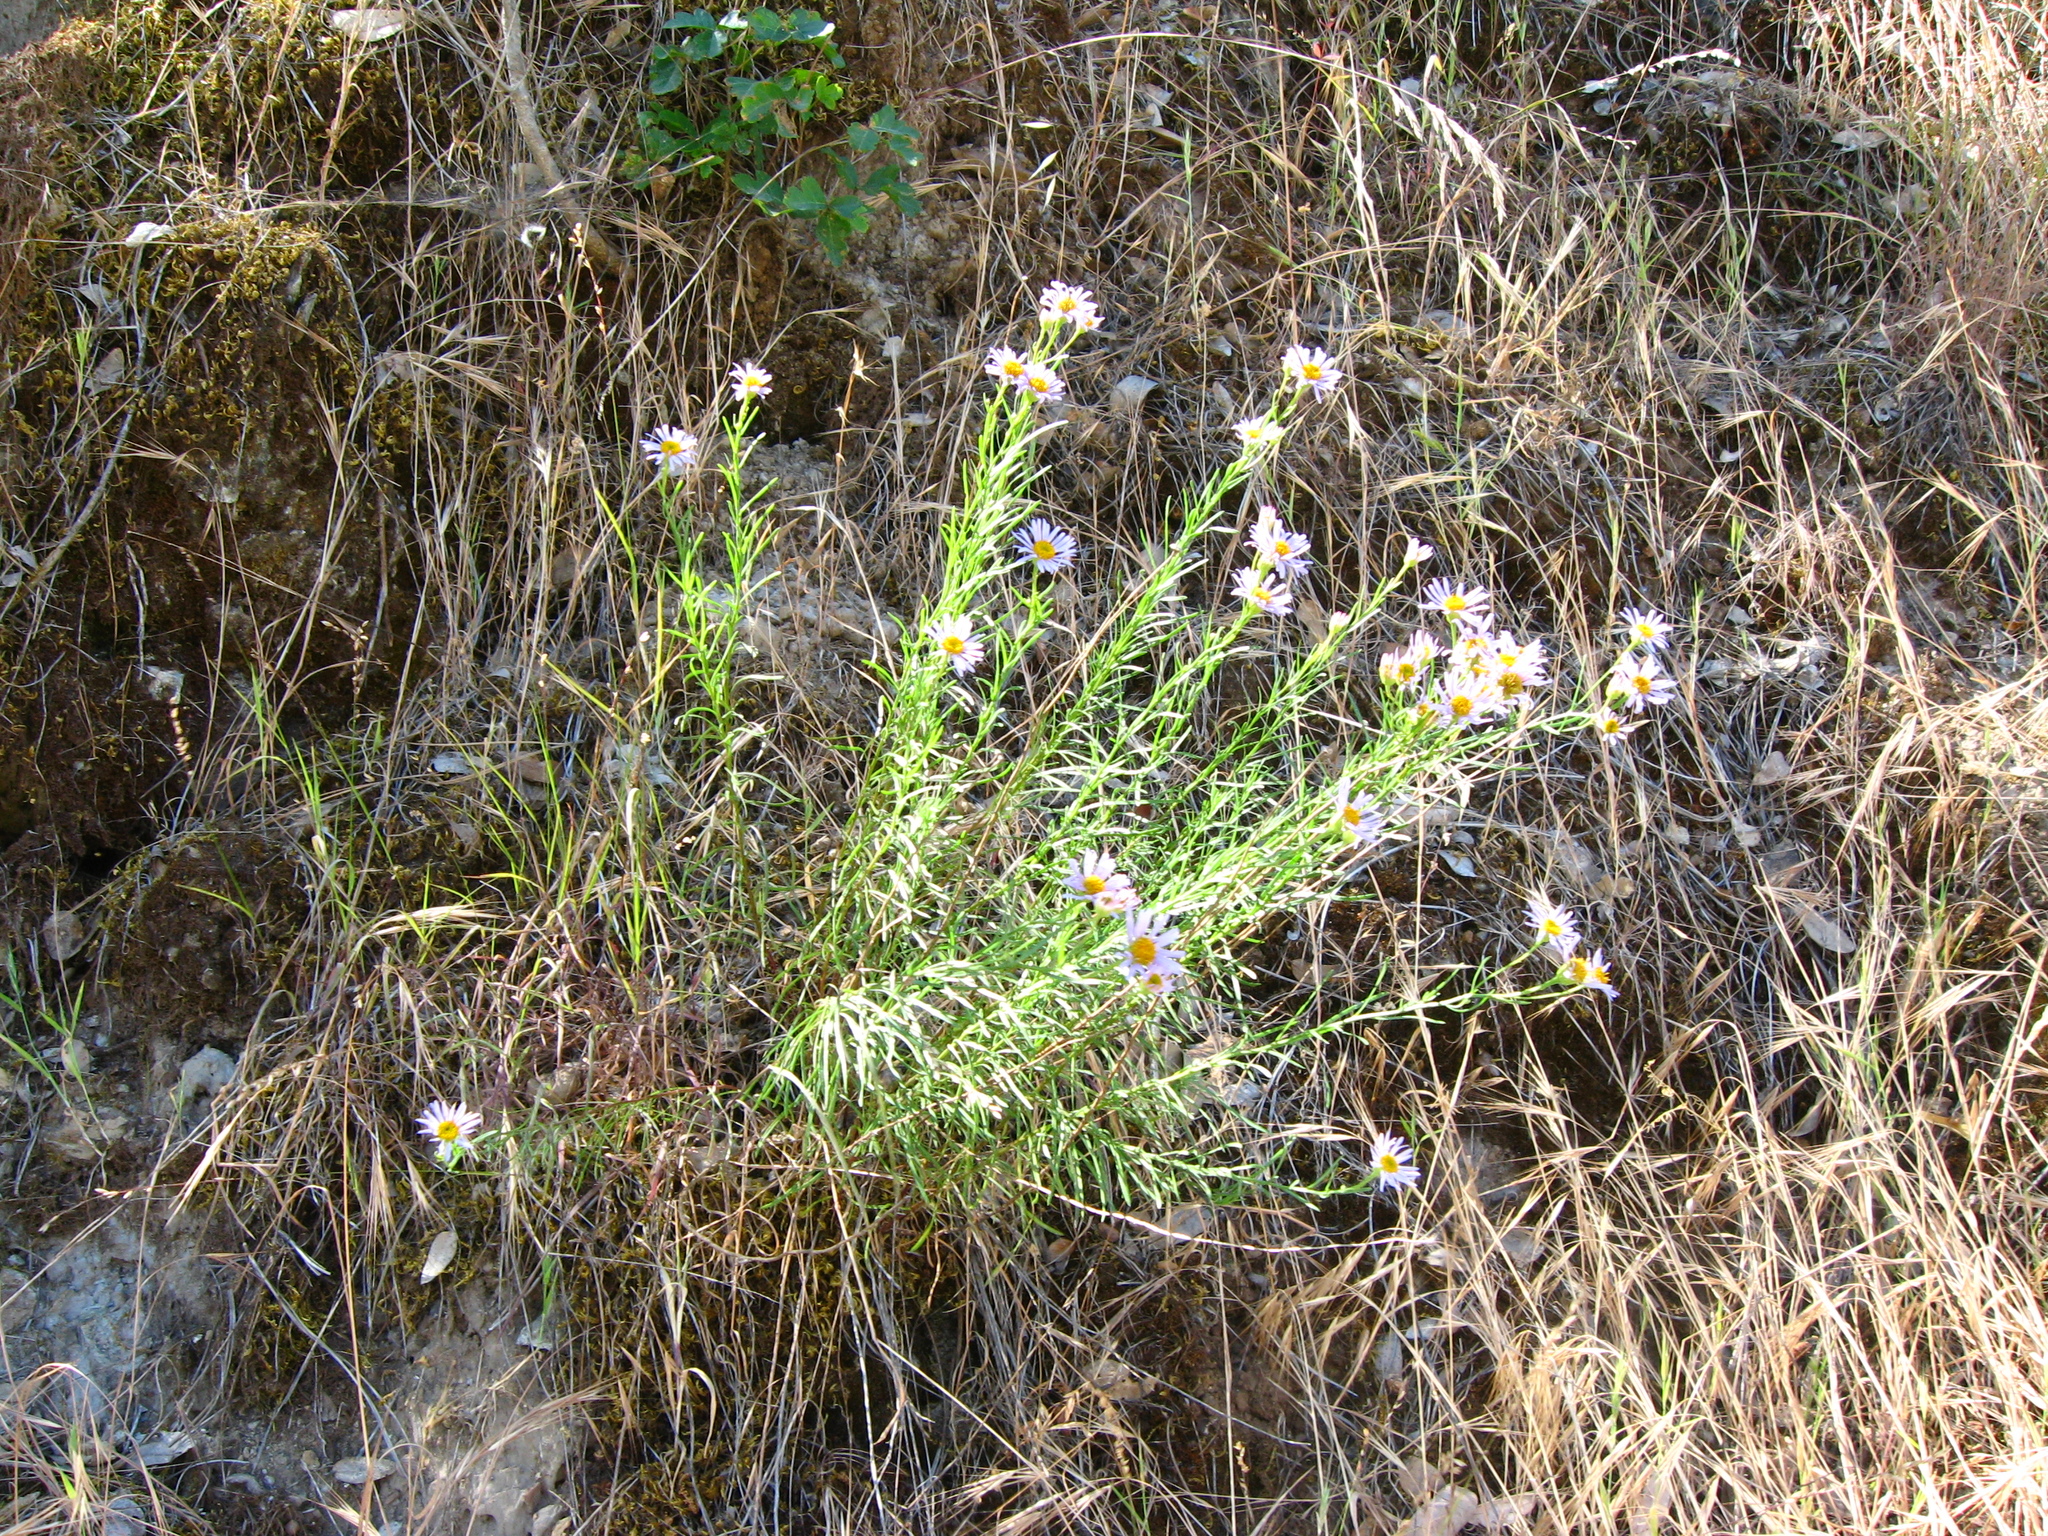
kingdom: Plantae
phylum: Tracheophyta
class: Magnoliopsida
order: Asterales
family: Asteraceae
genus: Erigeron
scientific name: Erigeron foliosus
